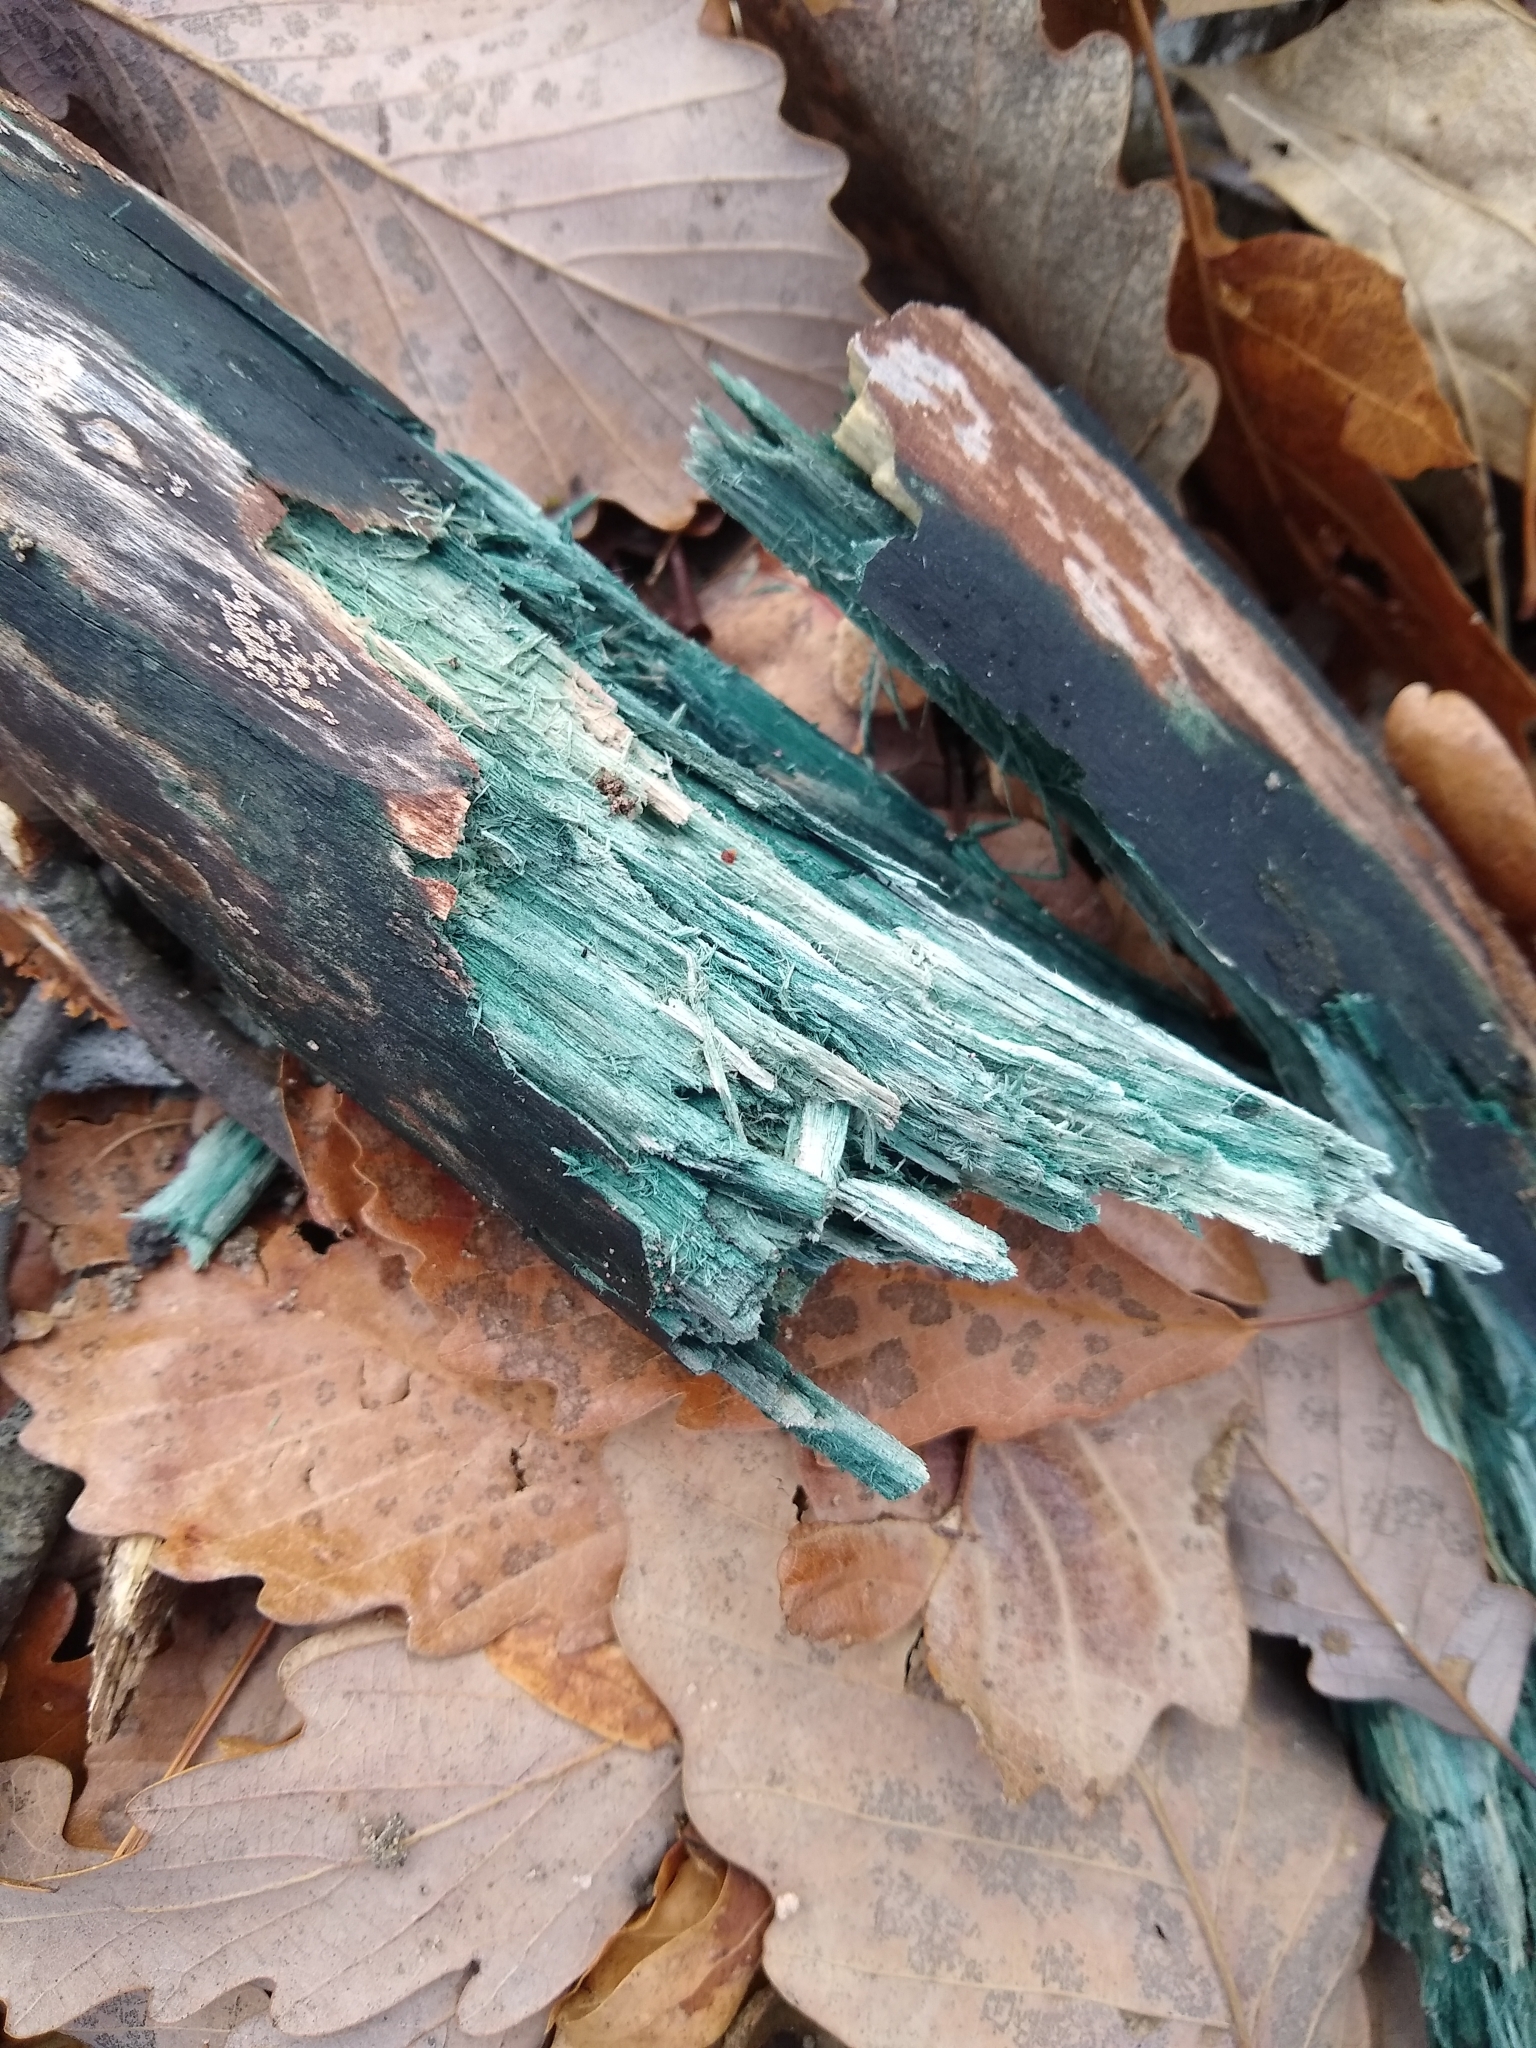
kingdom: Fungi
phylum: Ascomycota
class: Leotiomycetes
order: Helotiales
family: Chlorociboriaceae
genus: Chlorociboria
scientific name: Chlorociboria
